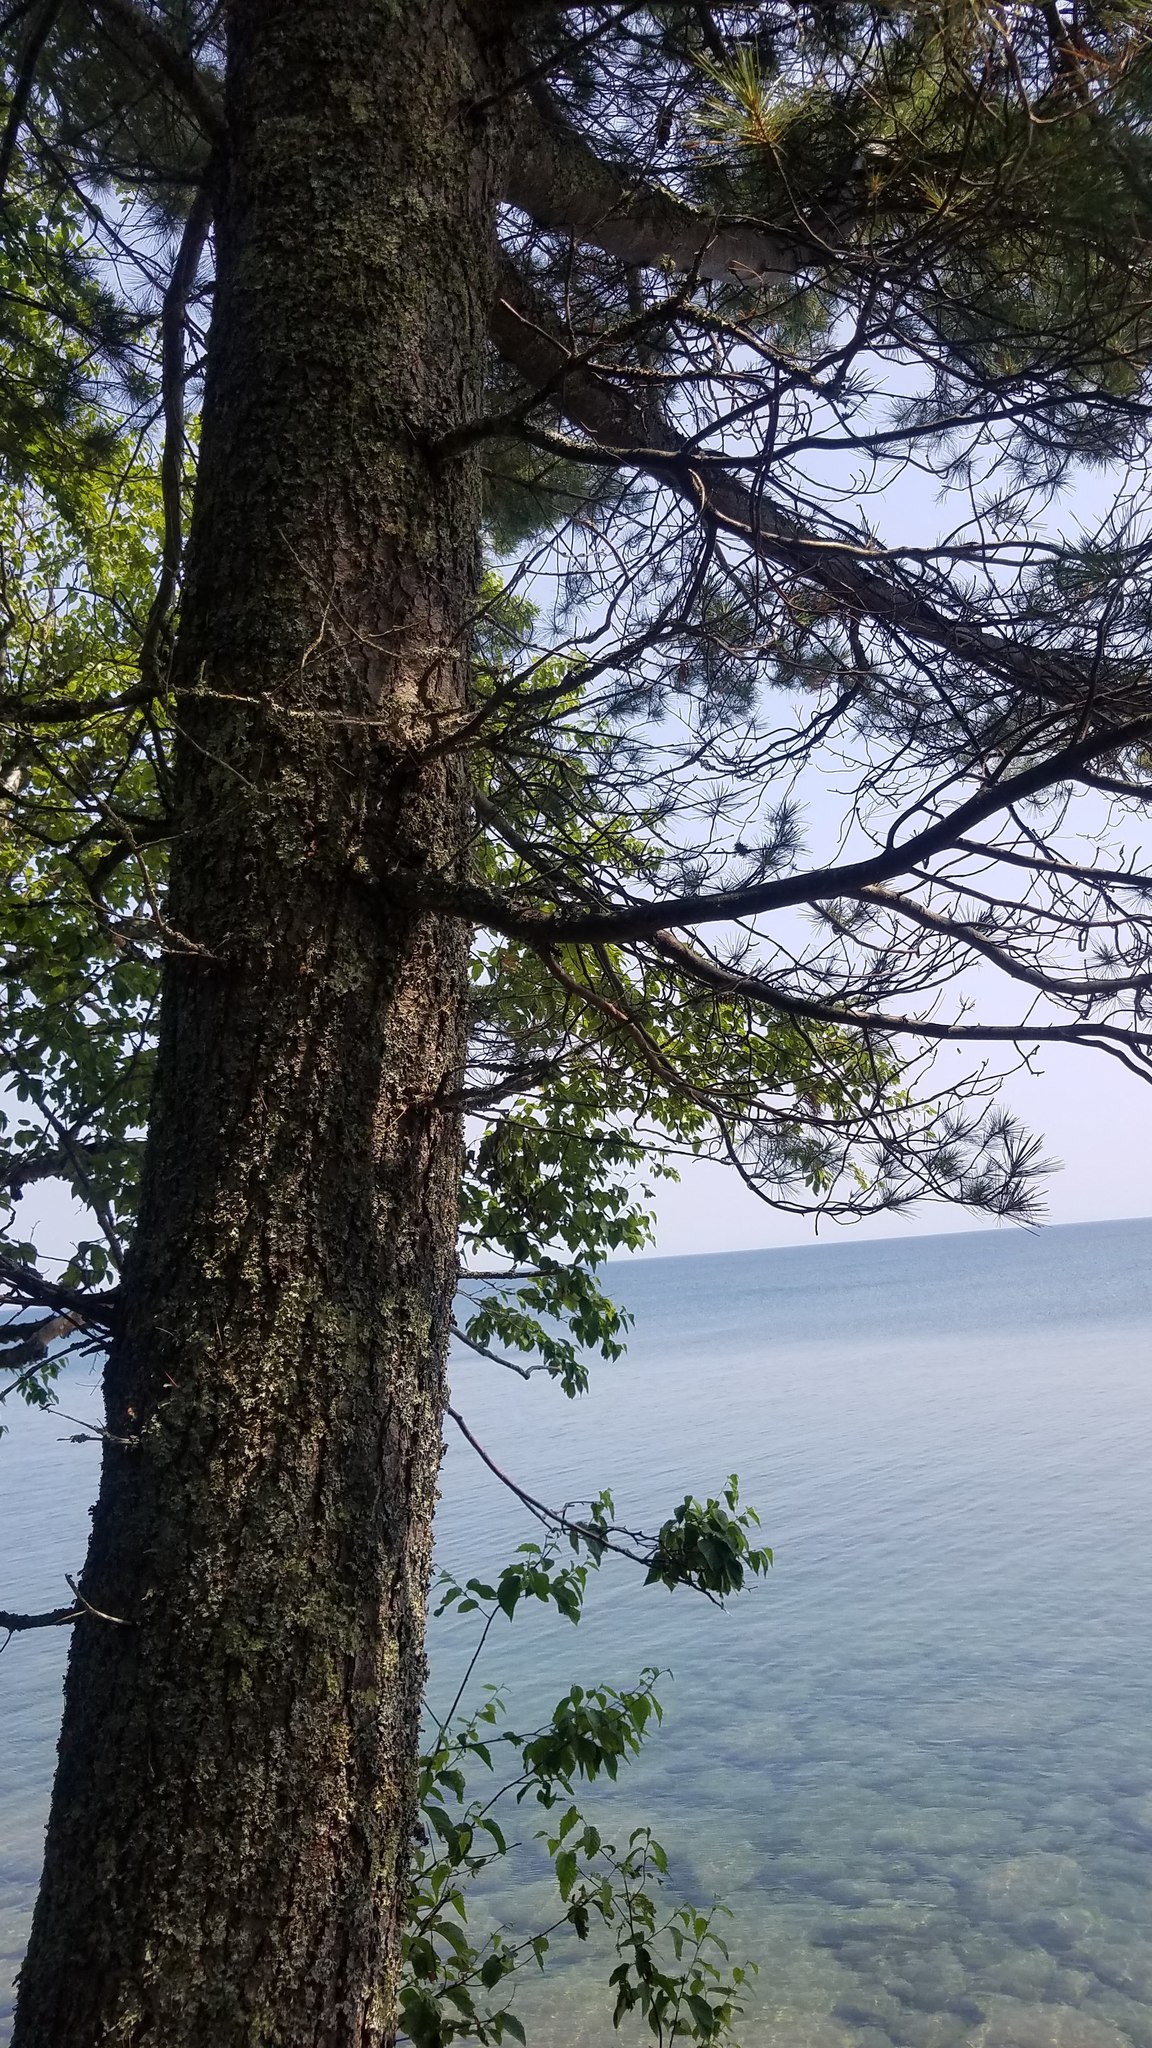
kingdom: Plantae
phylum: Tracheophyta
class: Pinopsida
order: Pinales
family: Pinaceae
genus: Pinus
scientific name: Pinus strobus
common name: Weymouth pine
